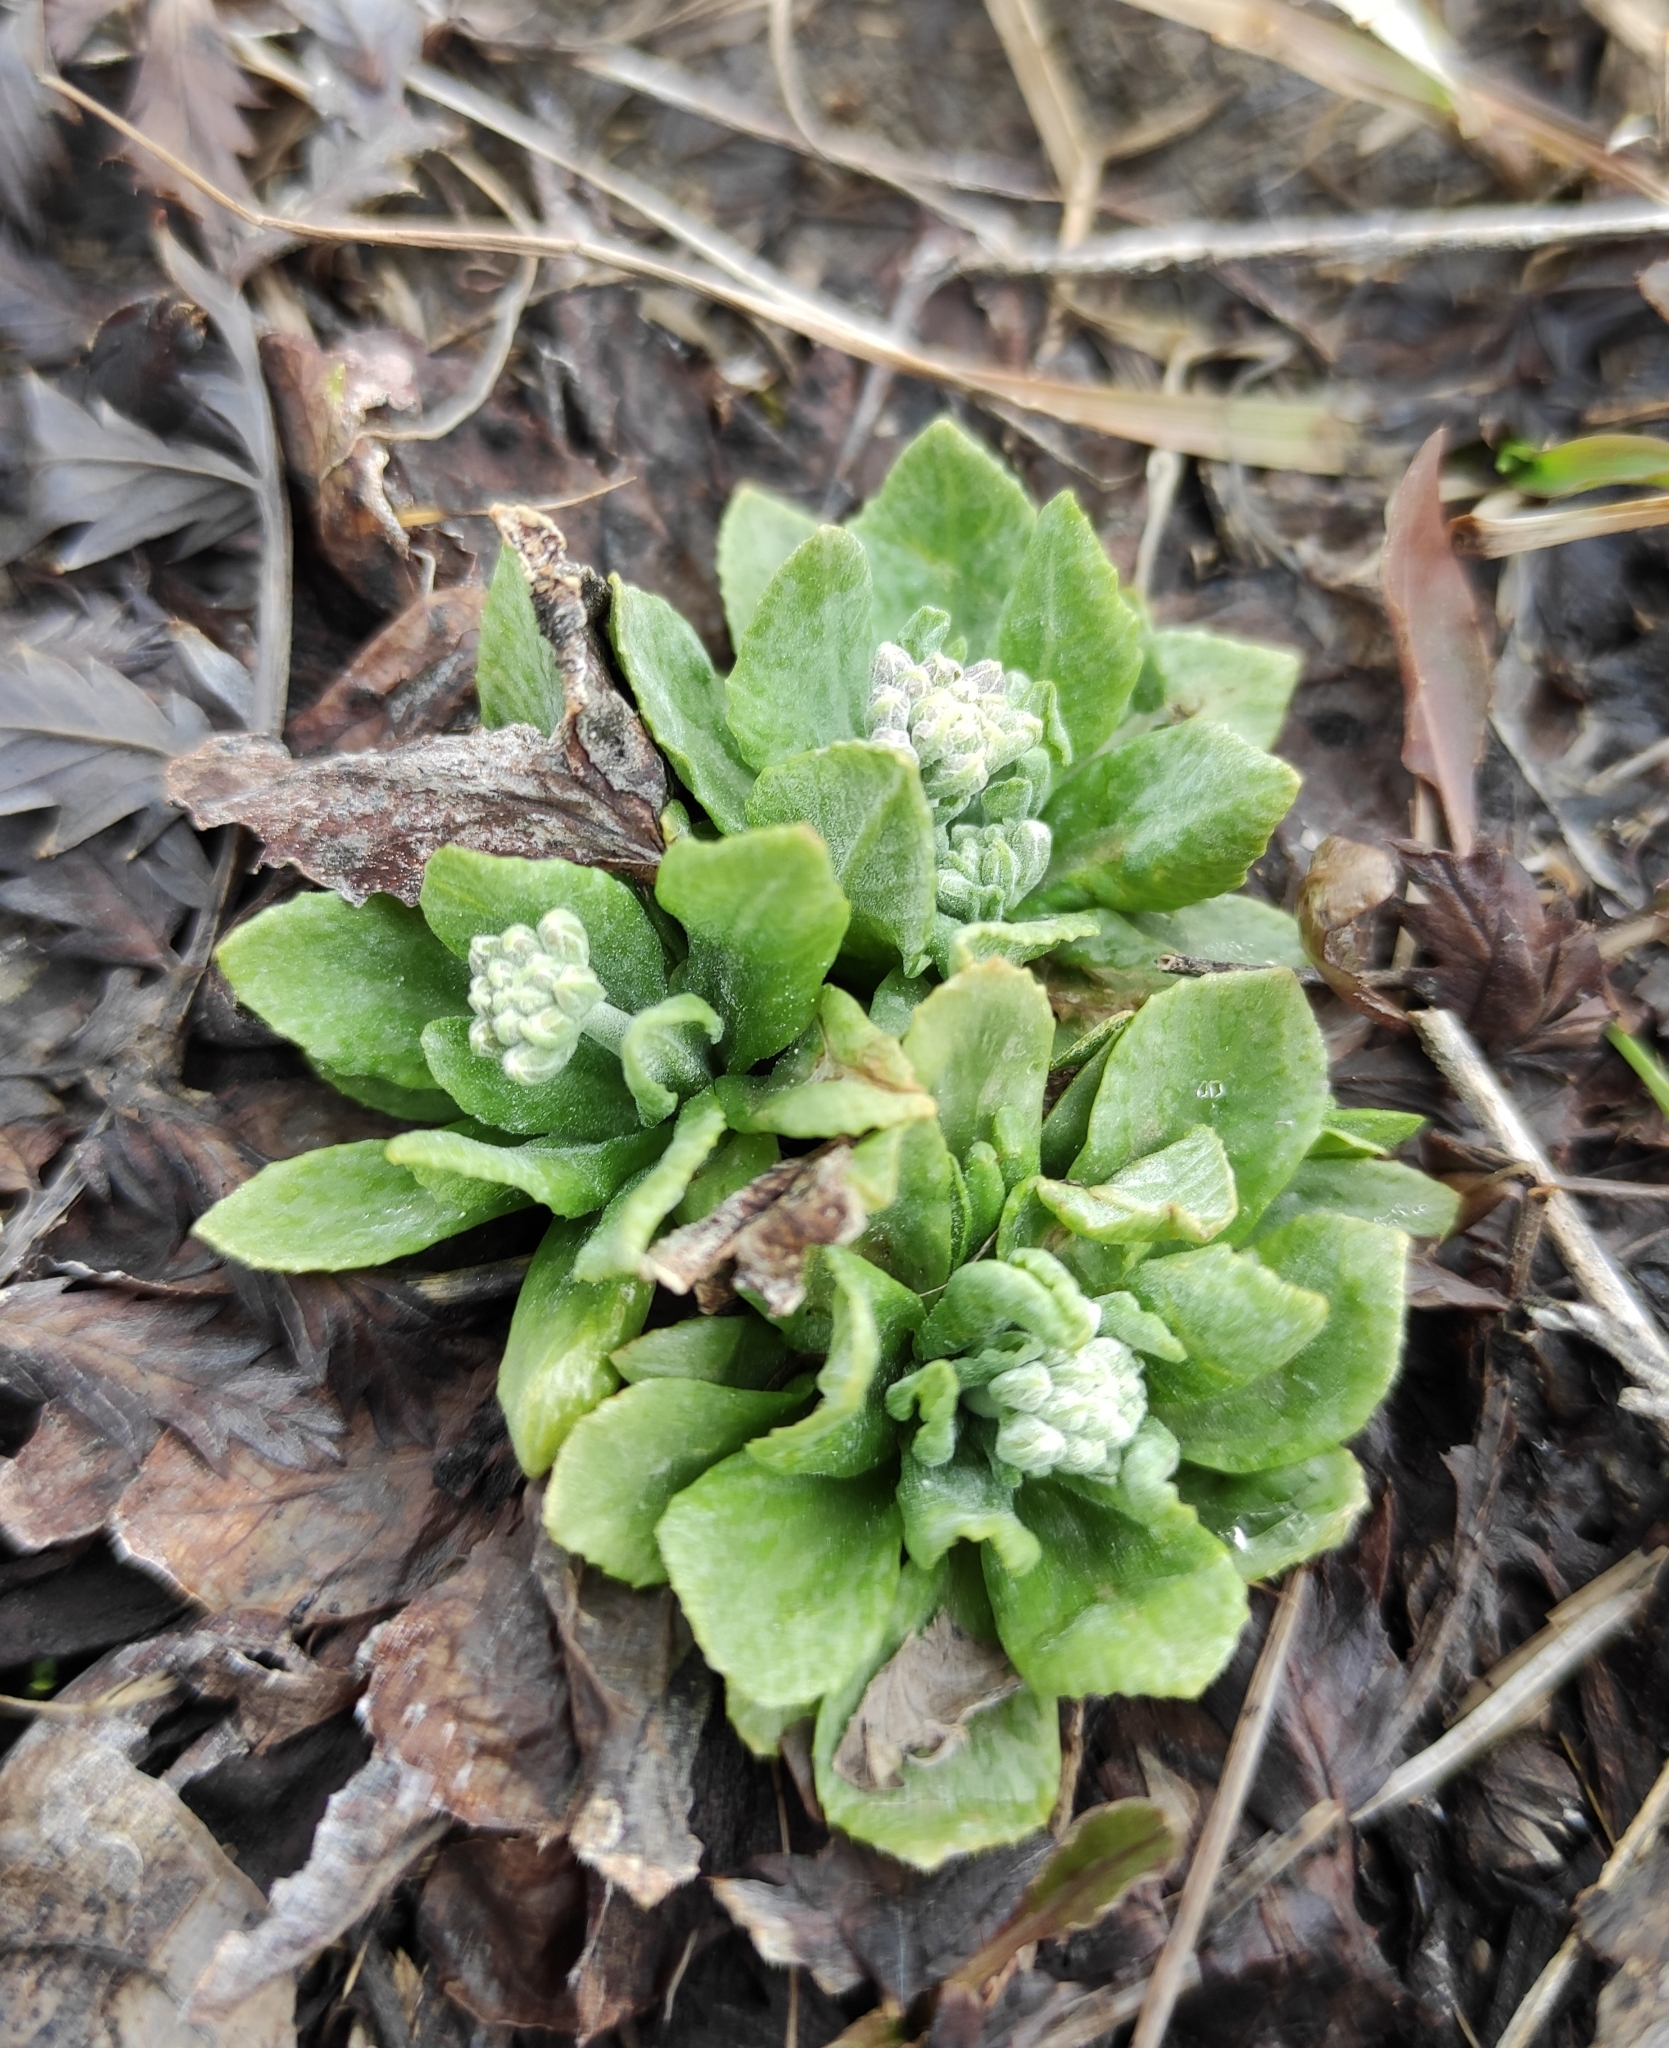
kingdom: Plantae
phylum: Tracheophyta
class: Magnoliopsida
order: Ericales
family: Primulaceae
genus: Primula
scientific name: Primula farinosa
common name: Bird's-eye primrose
